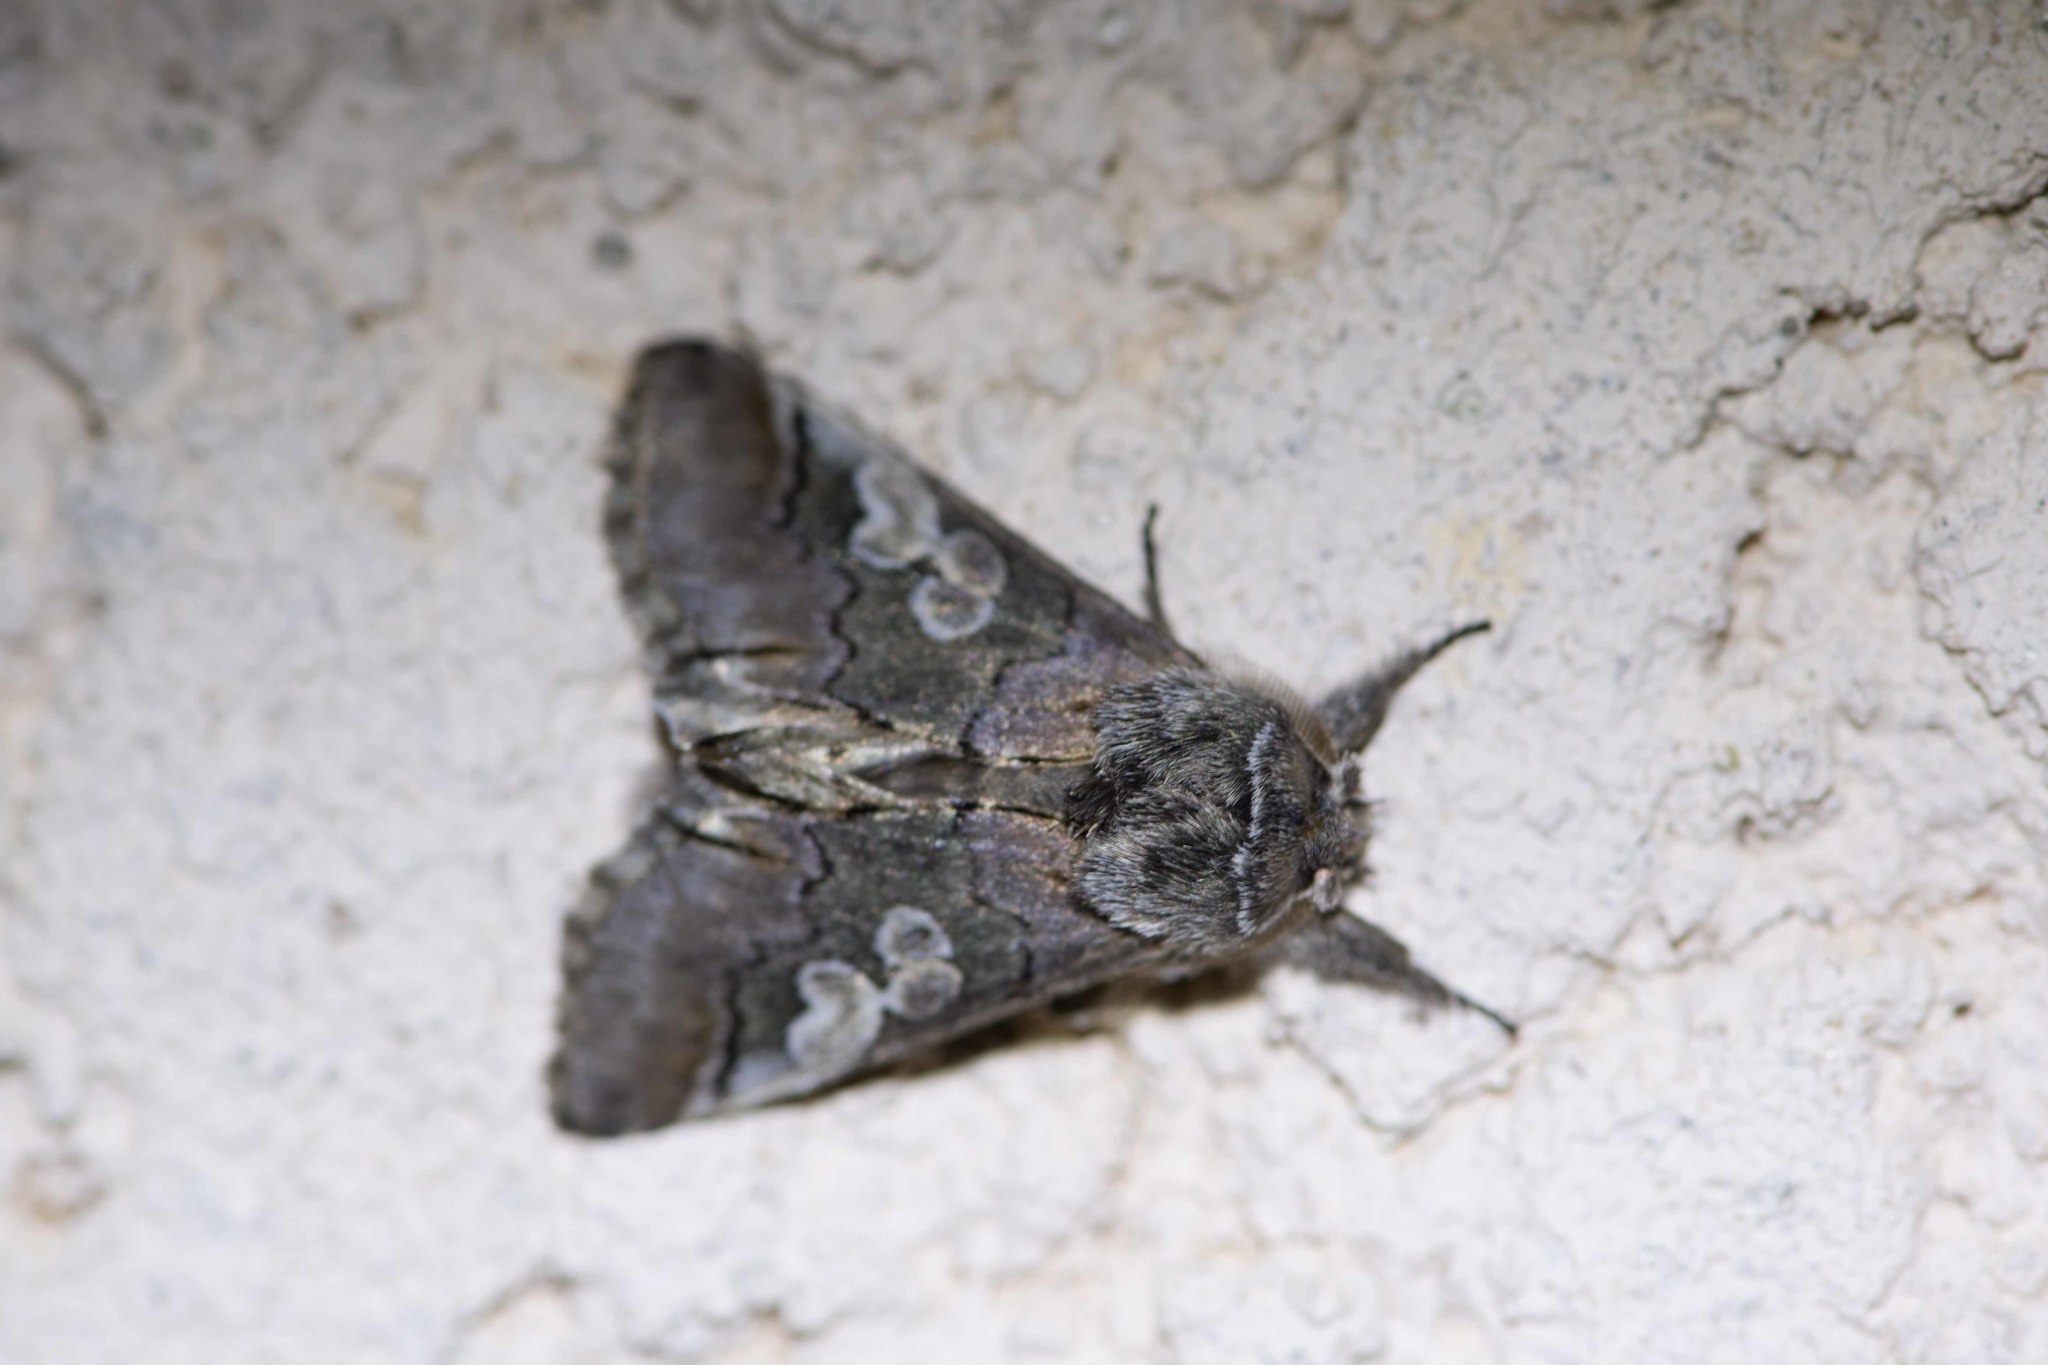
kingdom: Animalia
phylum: Arthropoda
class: Insecta
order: Lepidoptera
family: Noctuidae
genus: Diloba
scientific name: Diloba caeruleocephala
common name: Figure of eight
